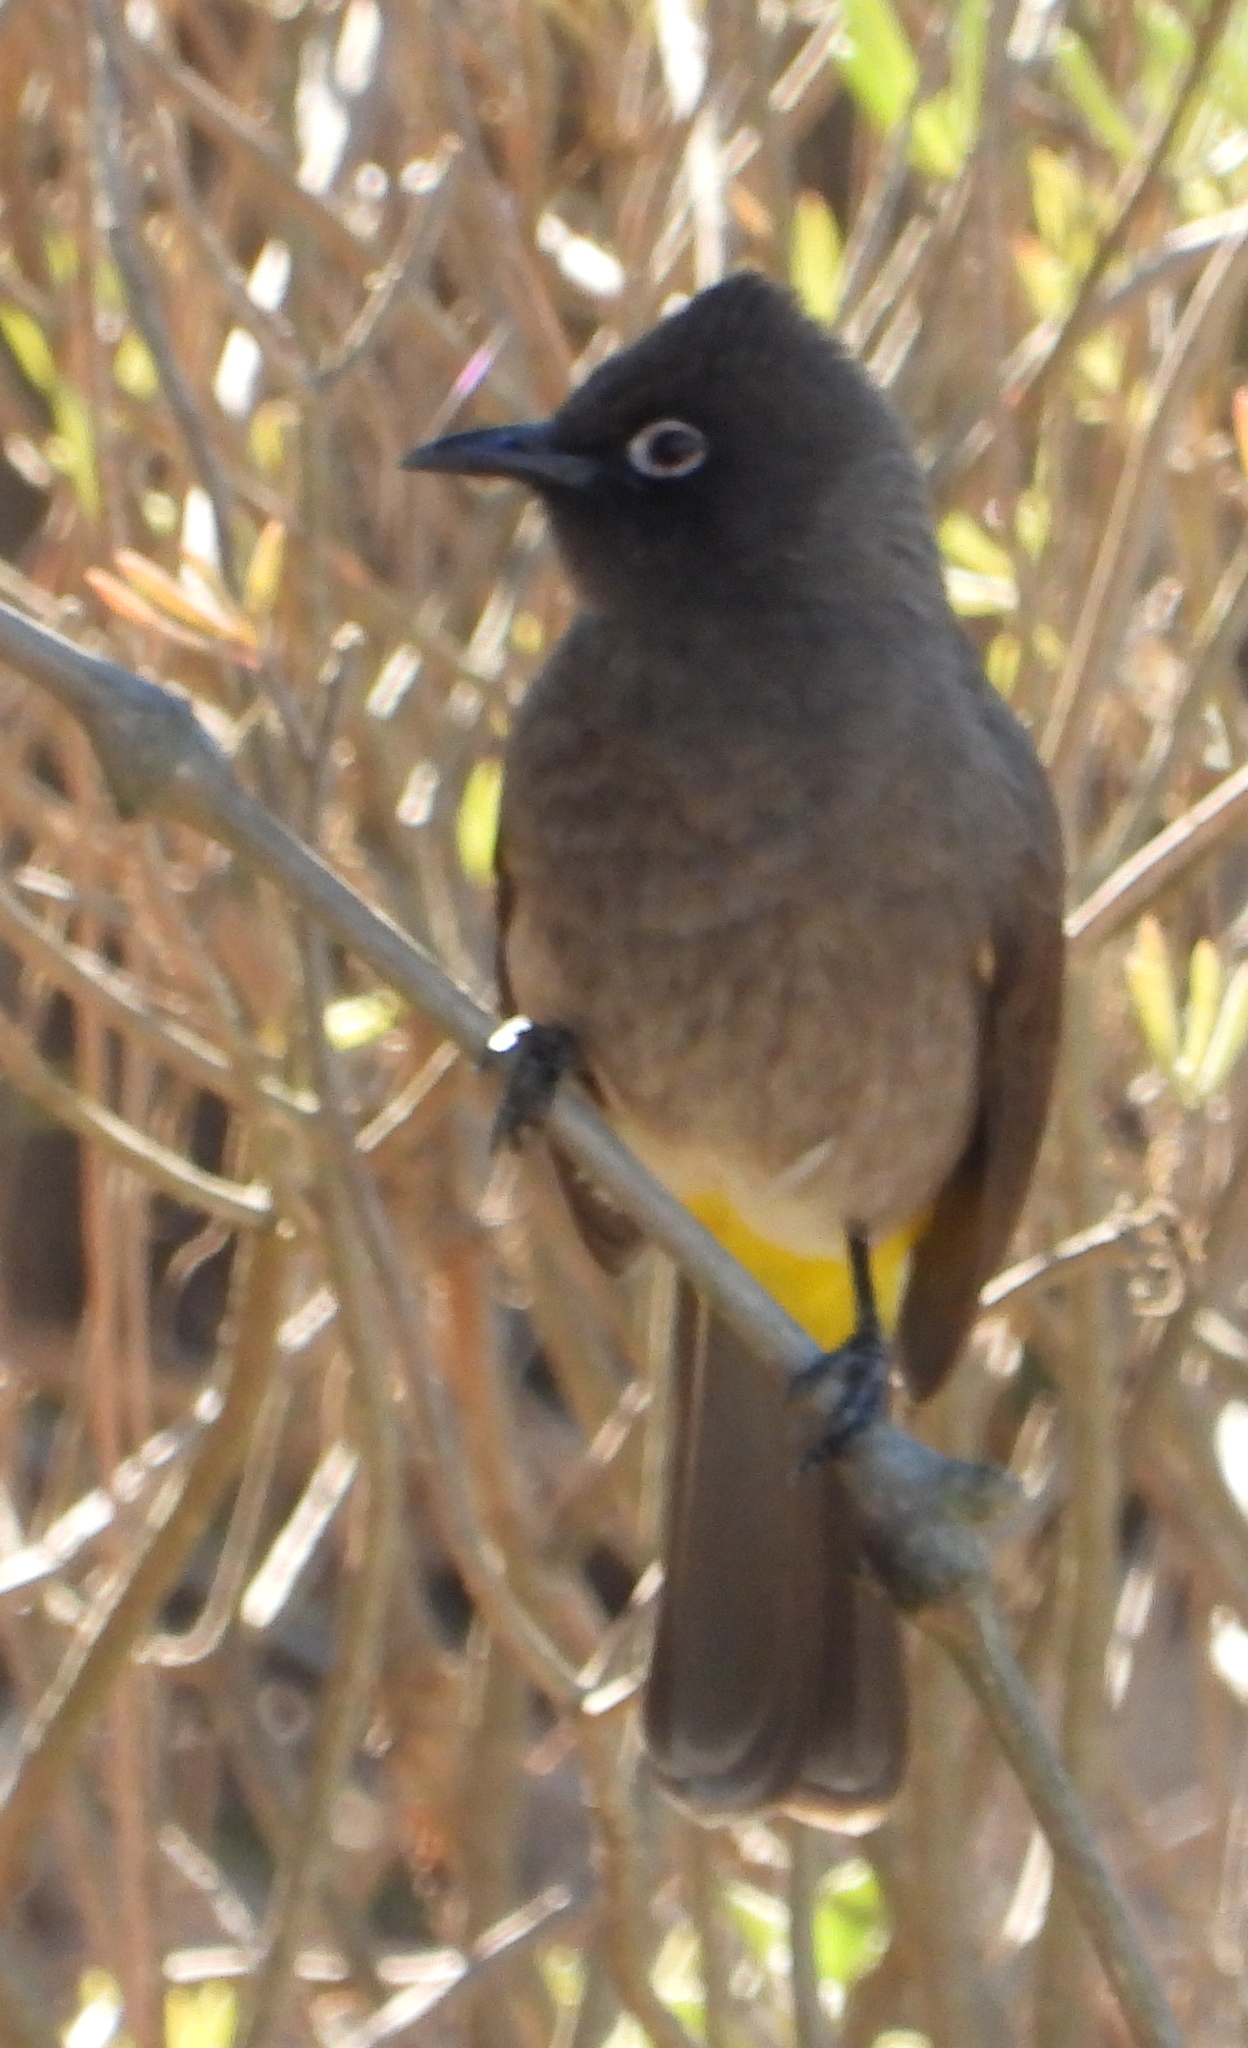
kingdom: Animalia
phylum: Chordata
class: Aves
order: Passeriformes
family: Pycnonotidae
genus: Pycnonotus
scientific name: Pycnonotus capensis
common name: Cape bulbul
